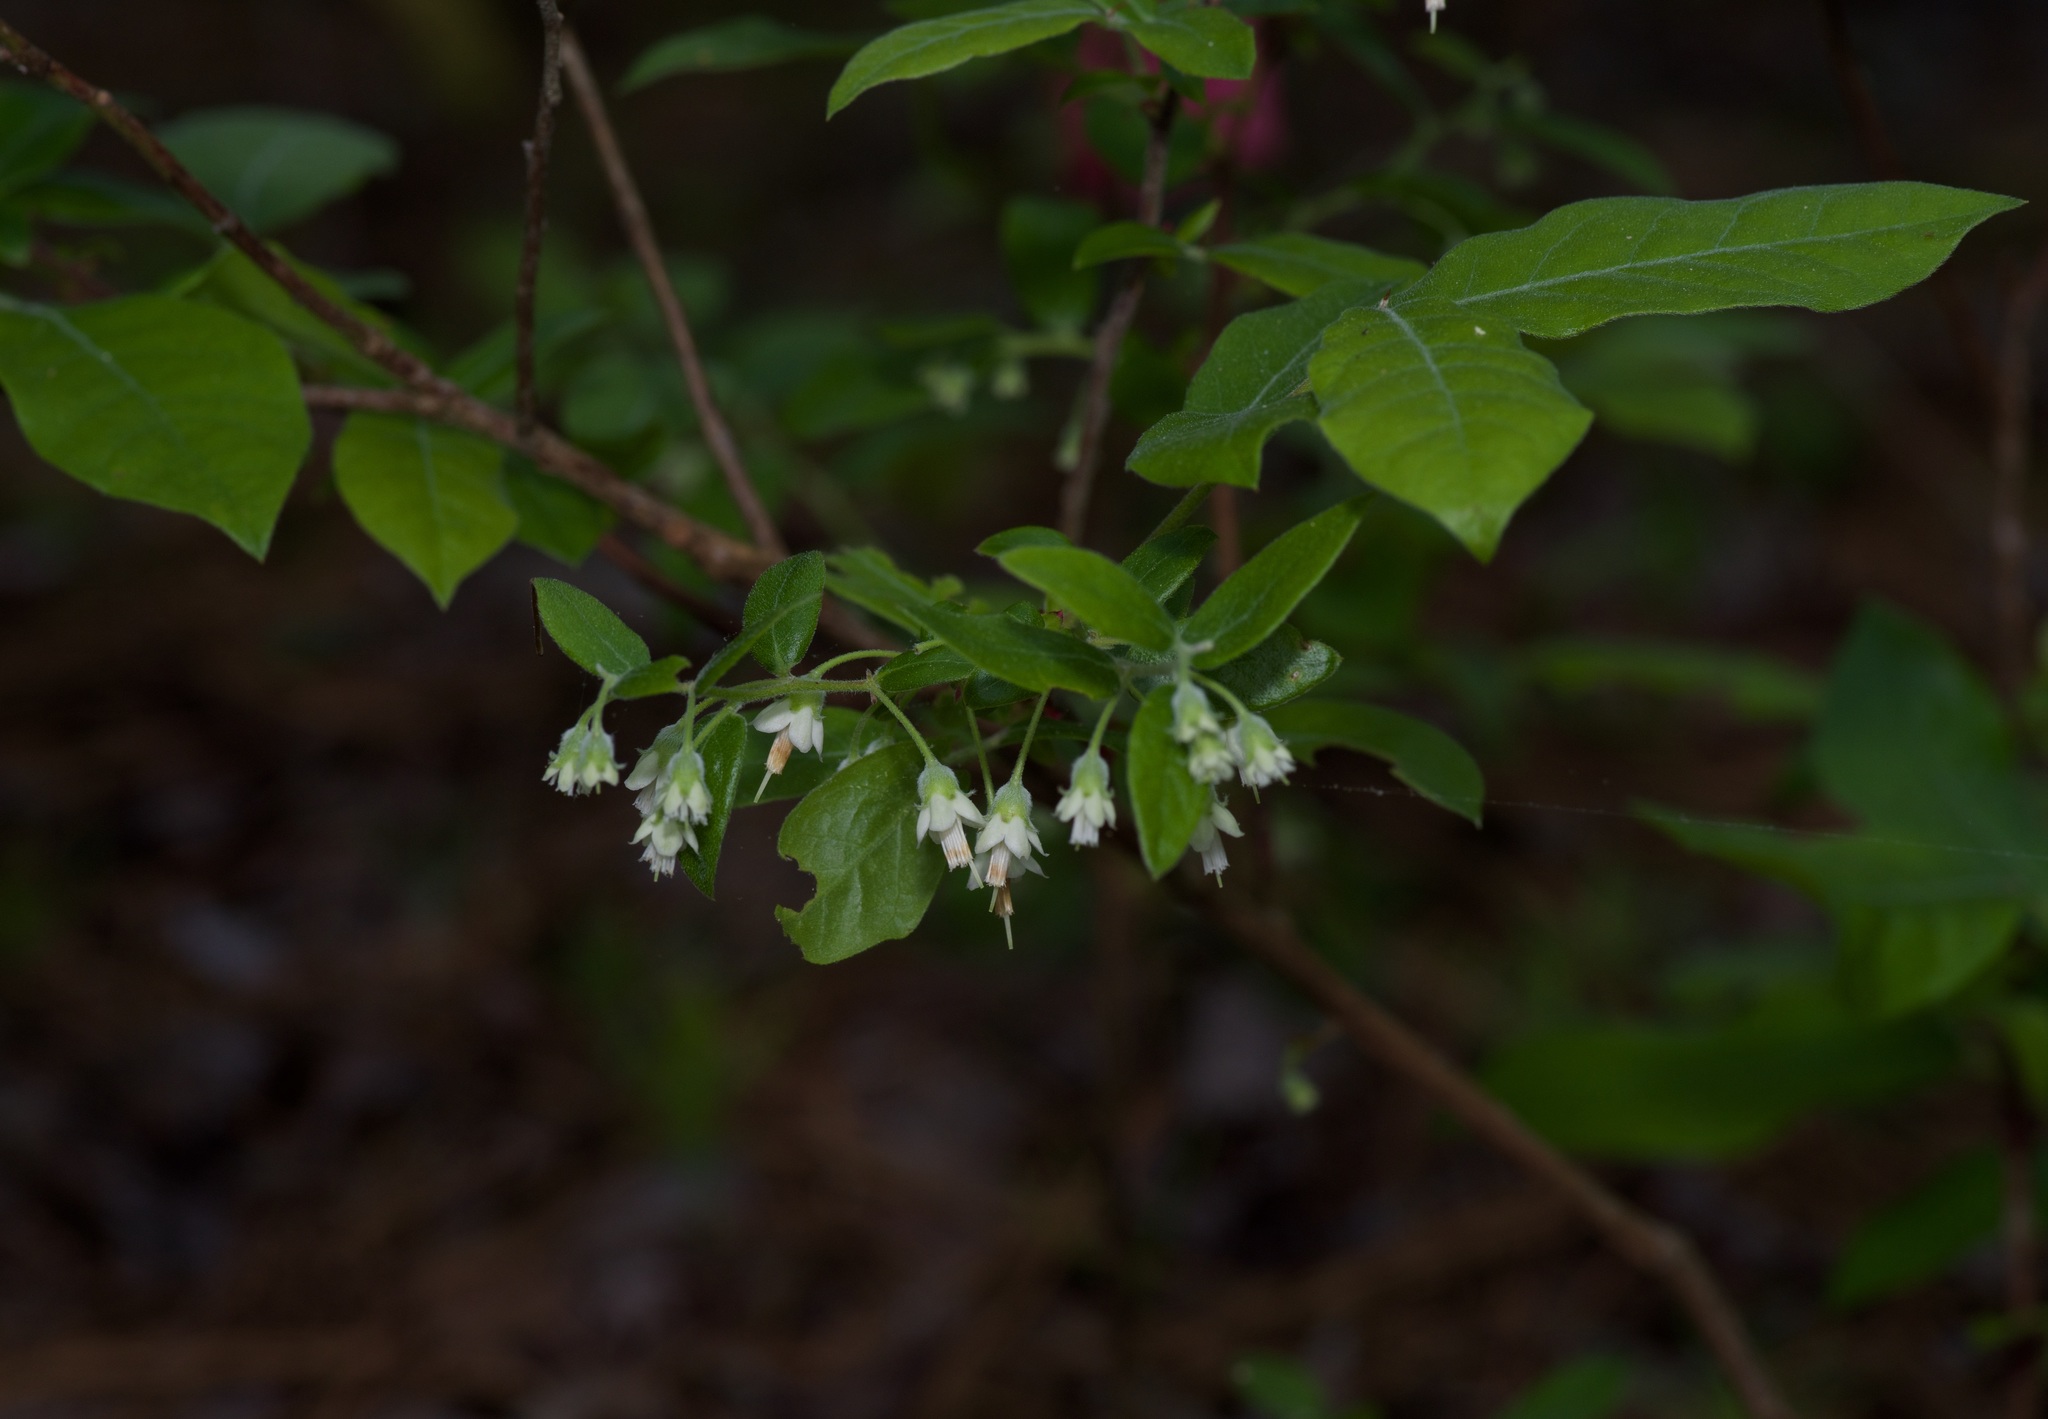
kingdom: Plantae
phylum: Tracheophyta
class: Magnoliopsida
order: Ericales
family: Ericaceae
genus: Vaccinium
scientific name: Vaccinium stamineum
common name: Deerberry
